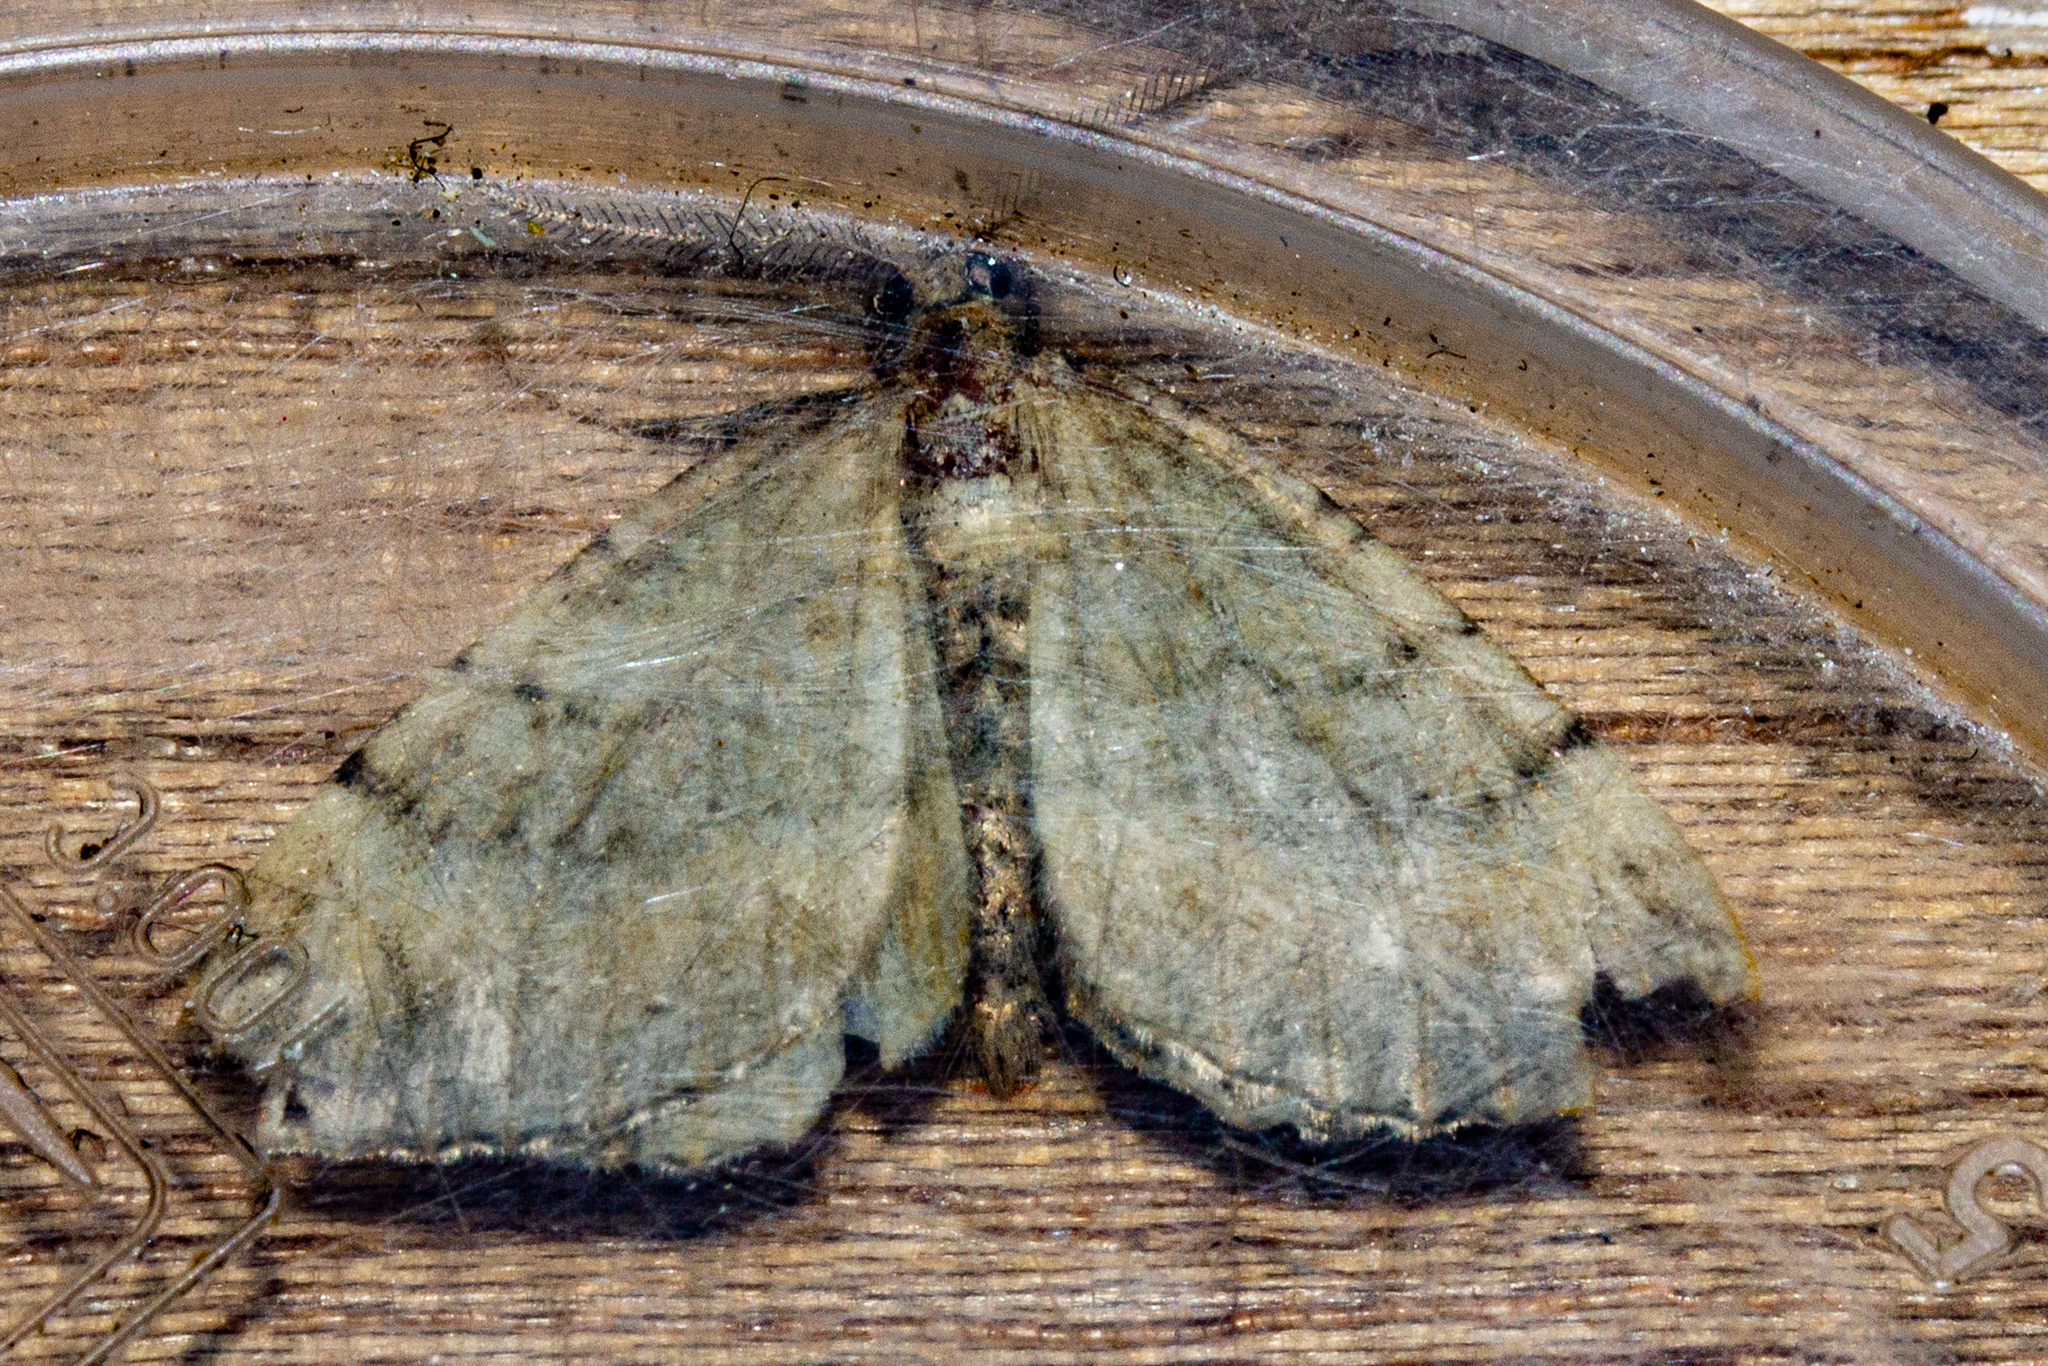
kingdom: Animalia
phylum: Arthropoda
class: Insecta
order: Lepidoptera
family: Geometridae
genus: Asaphodes
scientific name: Asaphodes aegrota
